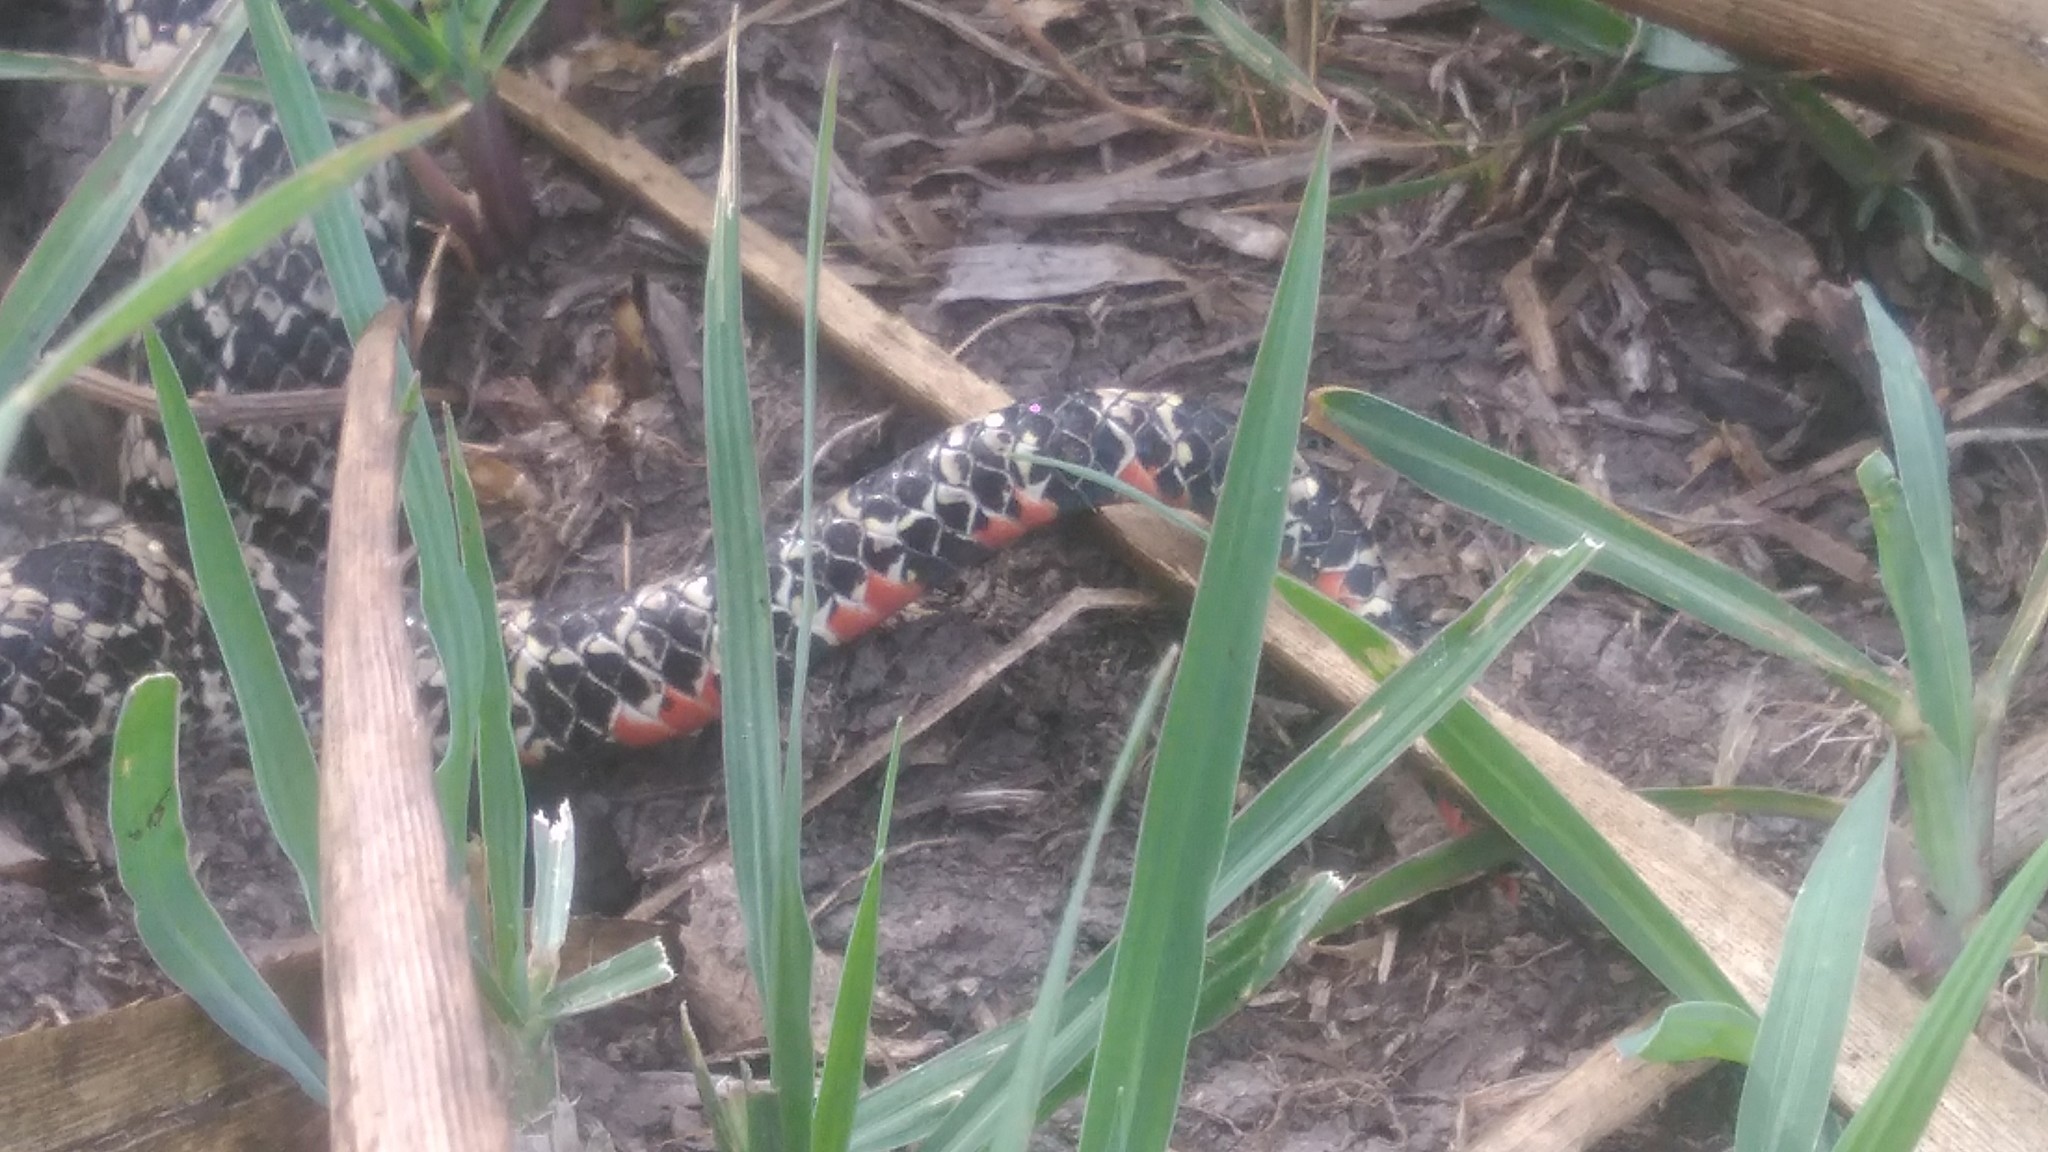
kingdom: Animalia
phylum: Chordata
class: Squamata
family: Colubridae
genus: Xenodon
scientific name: Xenodon dorbignyi
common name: South american hognose snake
